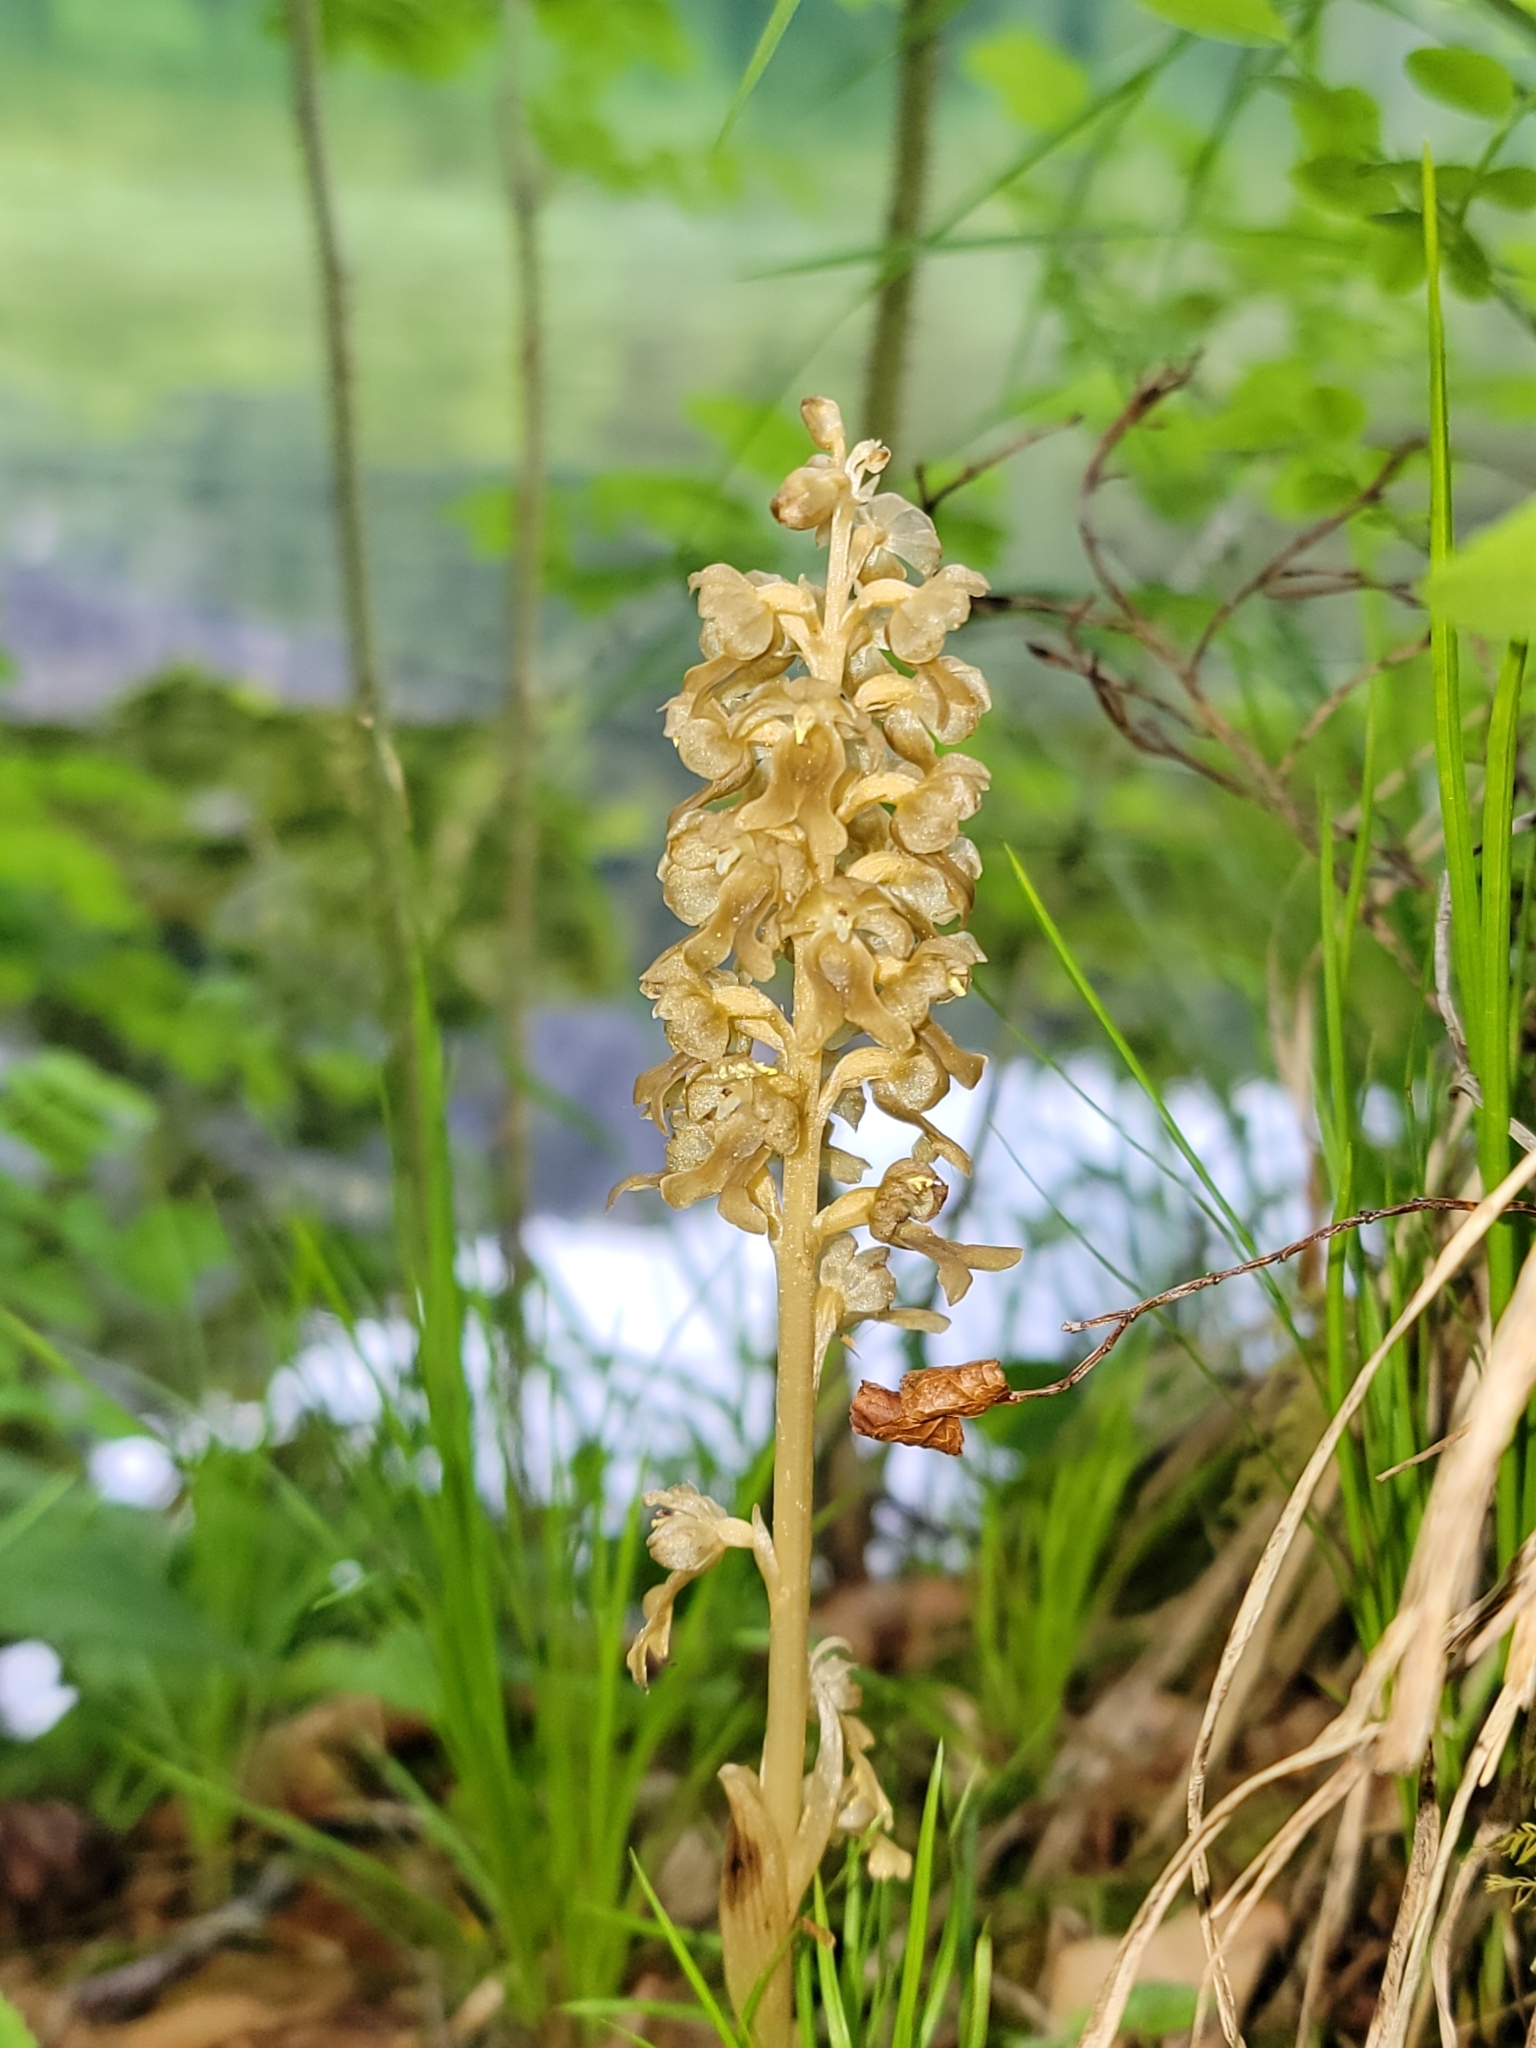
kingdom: Plantae
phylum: Tracheophyta
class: Liliopsida
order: Asparagales
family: Orchidaceae
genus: Neottia
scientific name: Neottia nidus-avis
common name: Bird's-nest orchid
